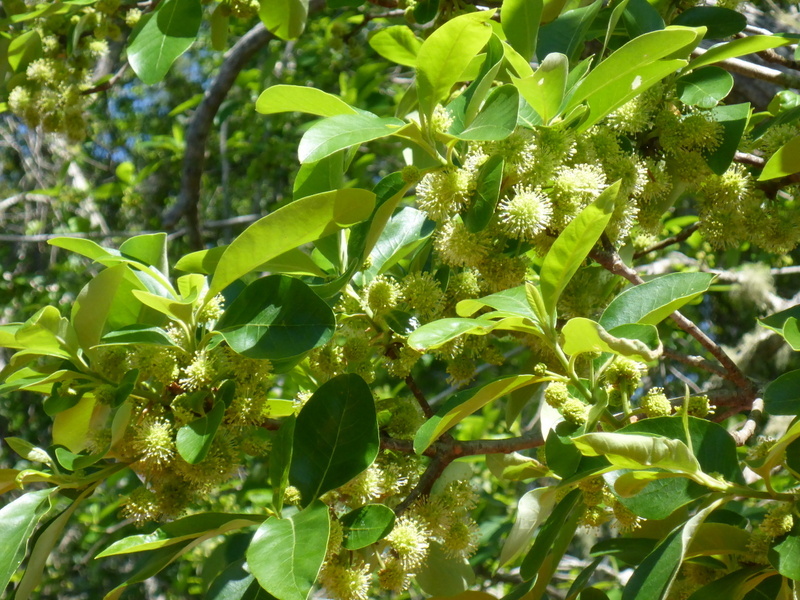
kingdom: Plantae
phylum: Tracheophyta
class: Magnoliopsida
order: Cornales
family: Nyssaceae
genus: Nyssa
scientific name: Nyssa ogeche
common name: Ogeechee tupelo
